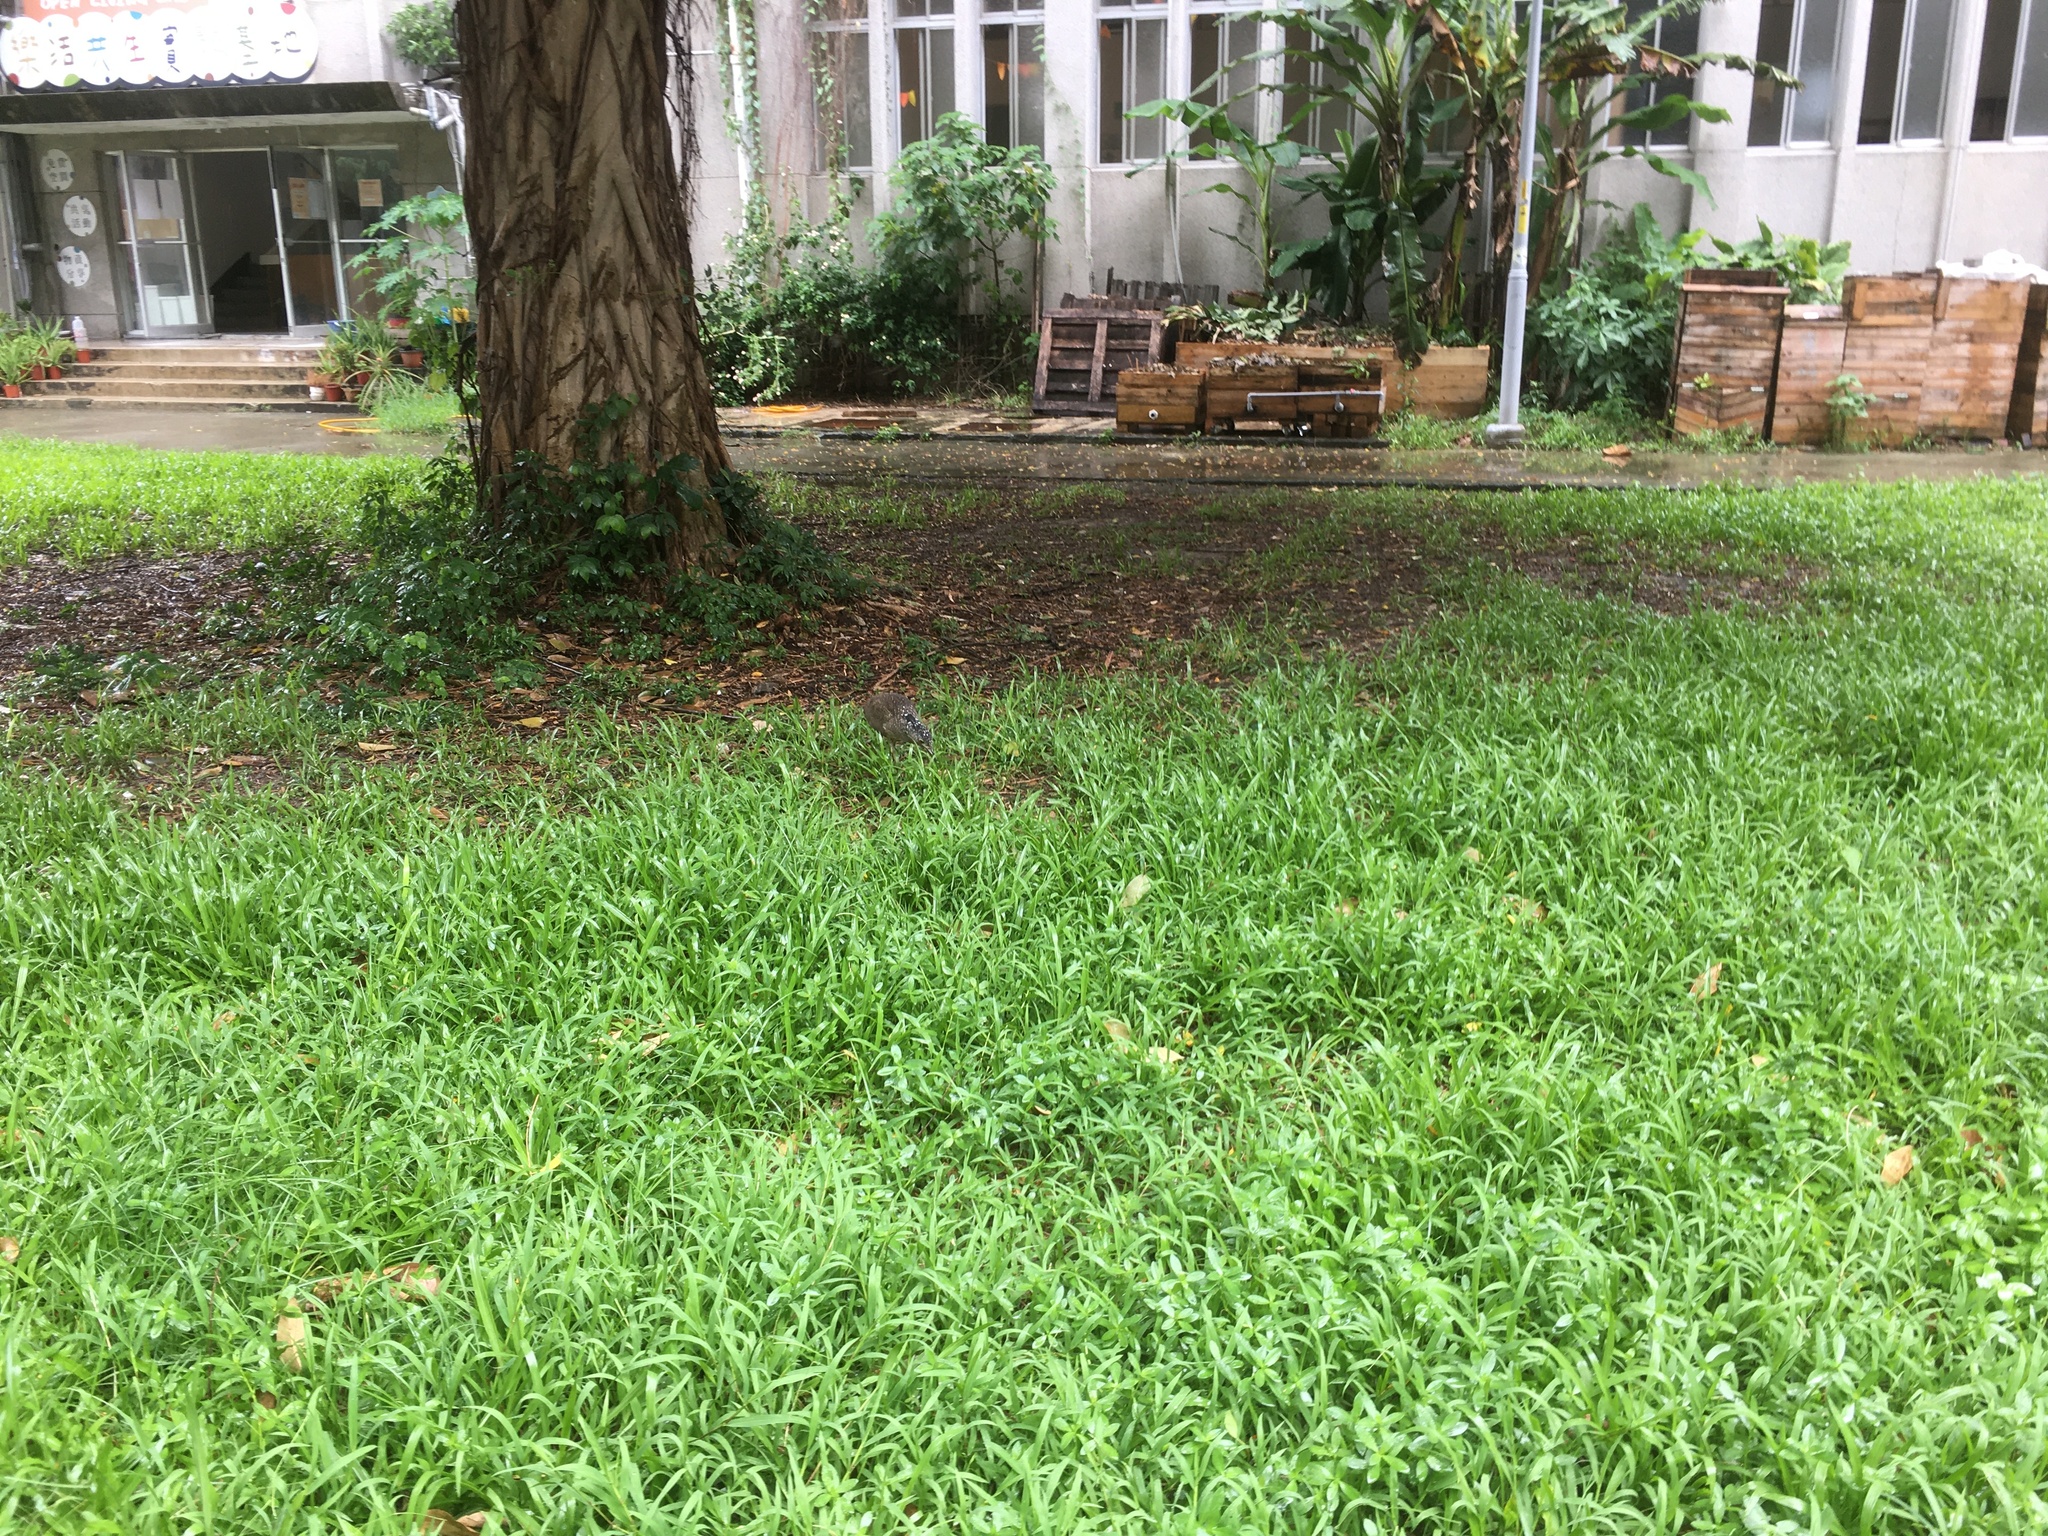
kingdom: Animalia
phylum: Chordata
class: Aves
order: Pelecaniformes
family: Ardeidae
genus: Gorsachius
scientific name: Gorsachius melanolophus
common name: Malayan night heron
